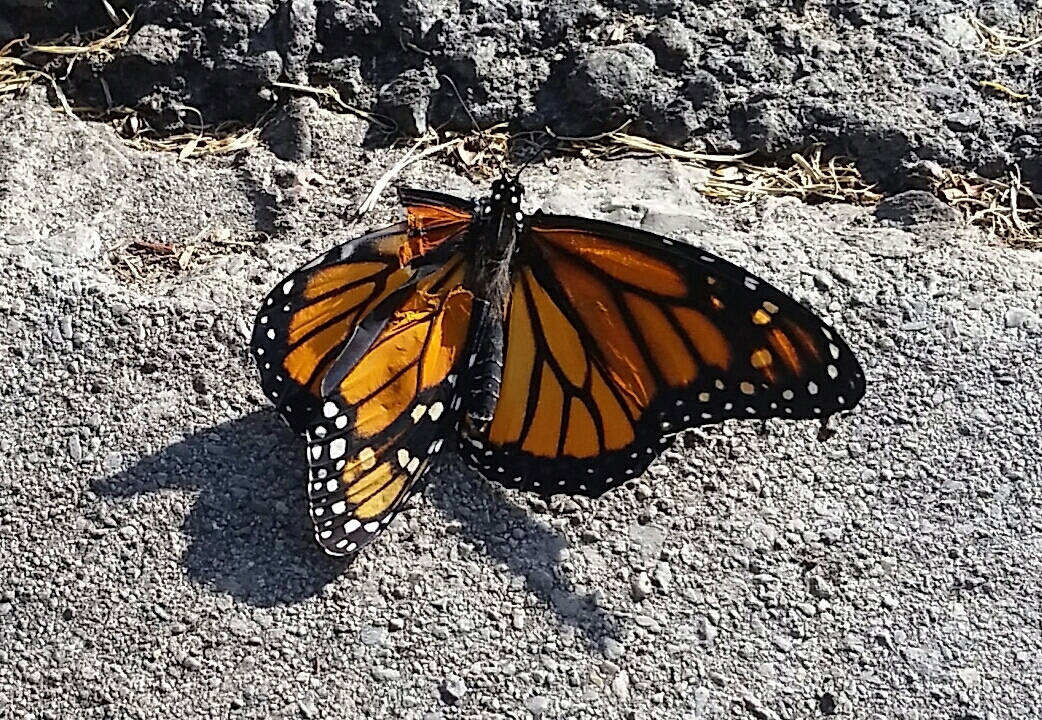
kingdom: Animalia
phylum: Arthropoda
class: Insecta
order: Lepidoptera
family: Nymphalidae
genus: Danaus
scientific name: Danaus plexippus
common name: Monarch
